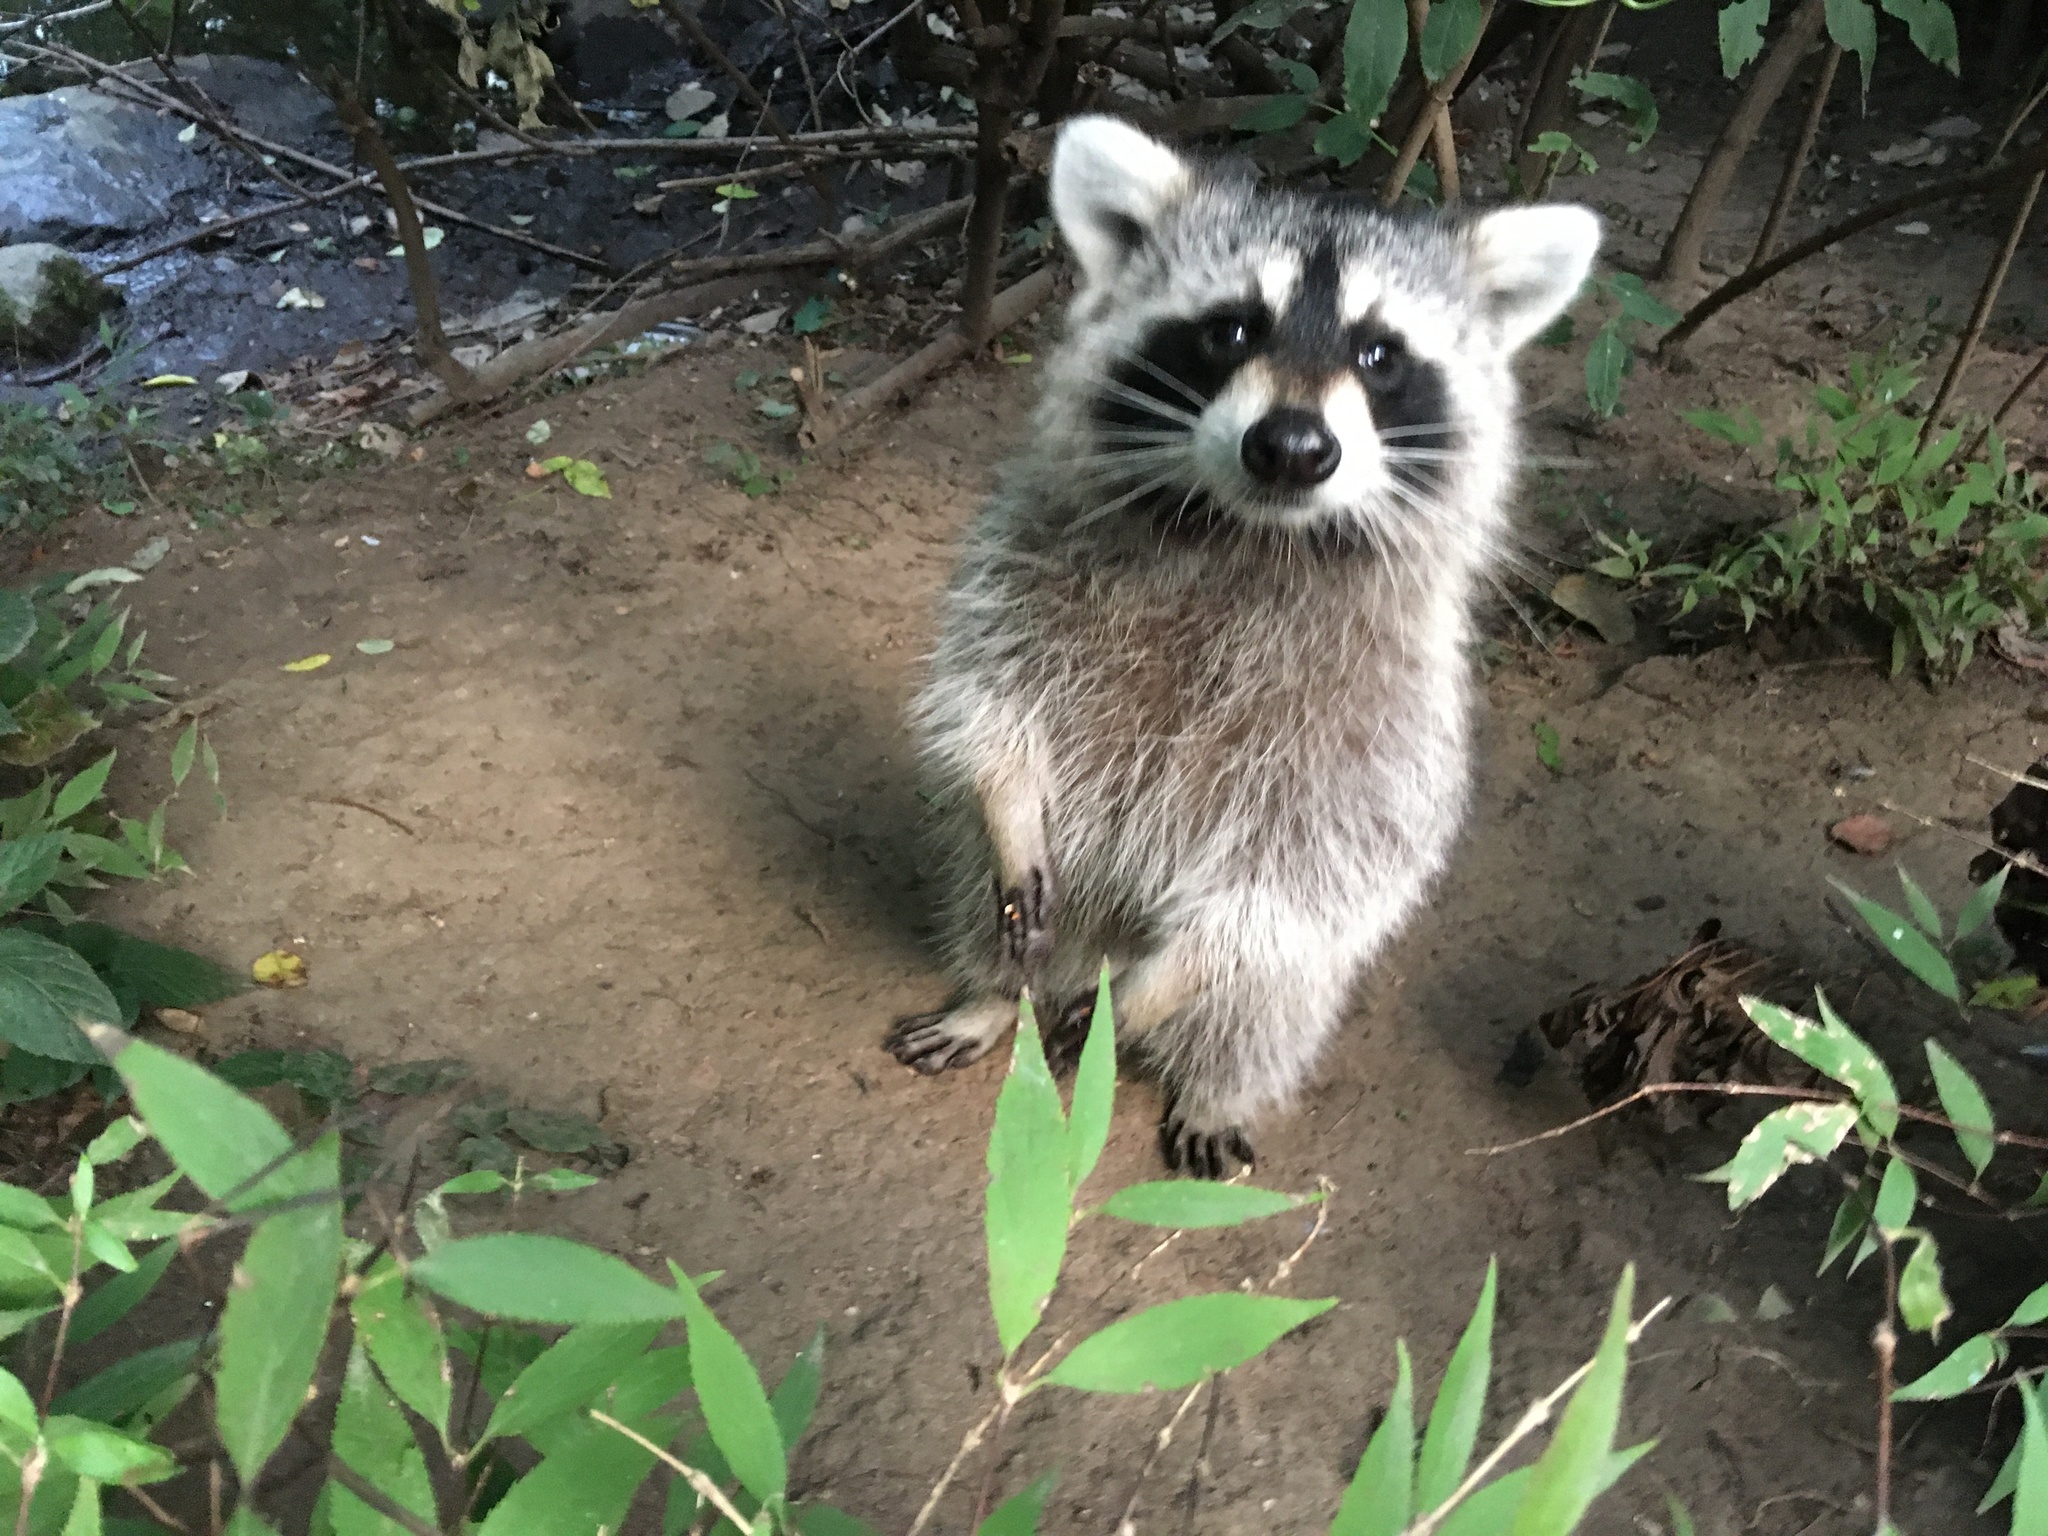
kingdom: Animalia
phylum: Chordata
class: Mammalia
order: Carnivora
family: Procyonidae
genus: Procyon
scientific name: Procyon lotor
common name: Raccoon
